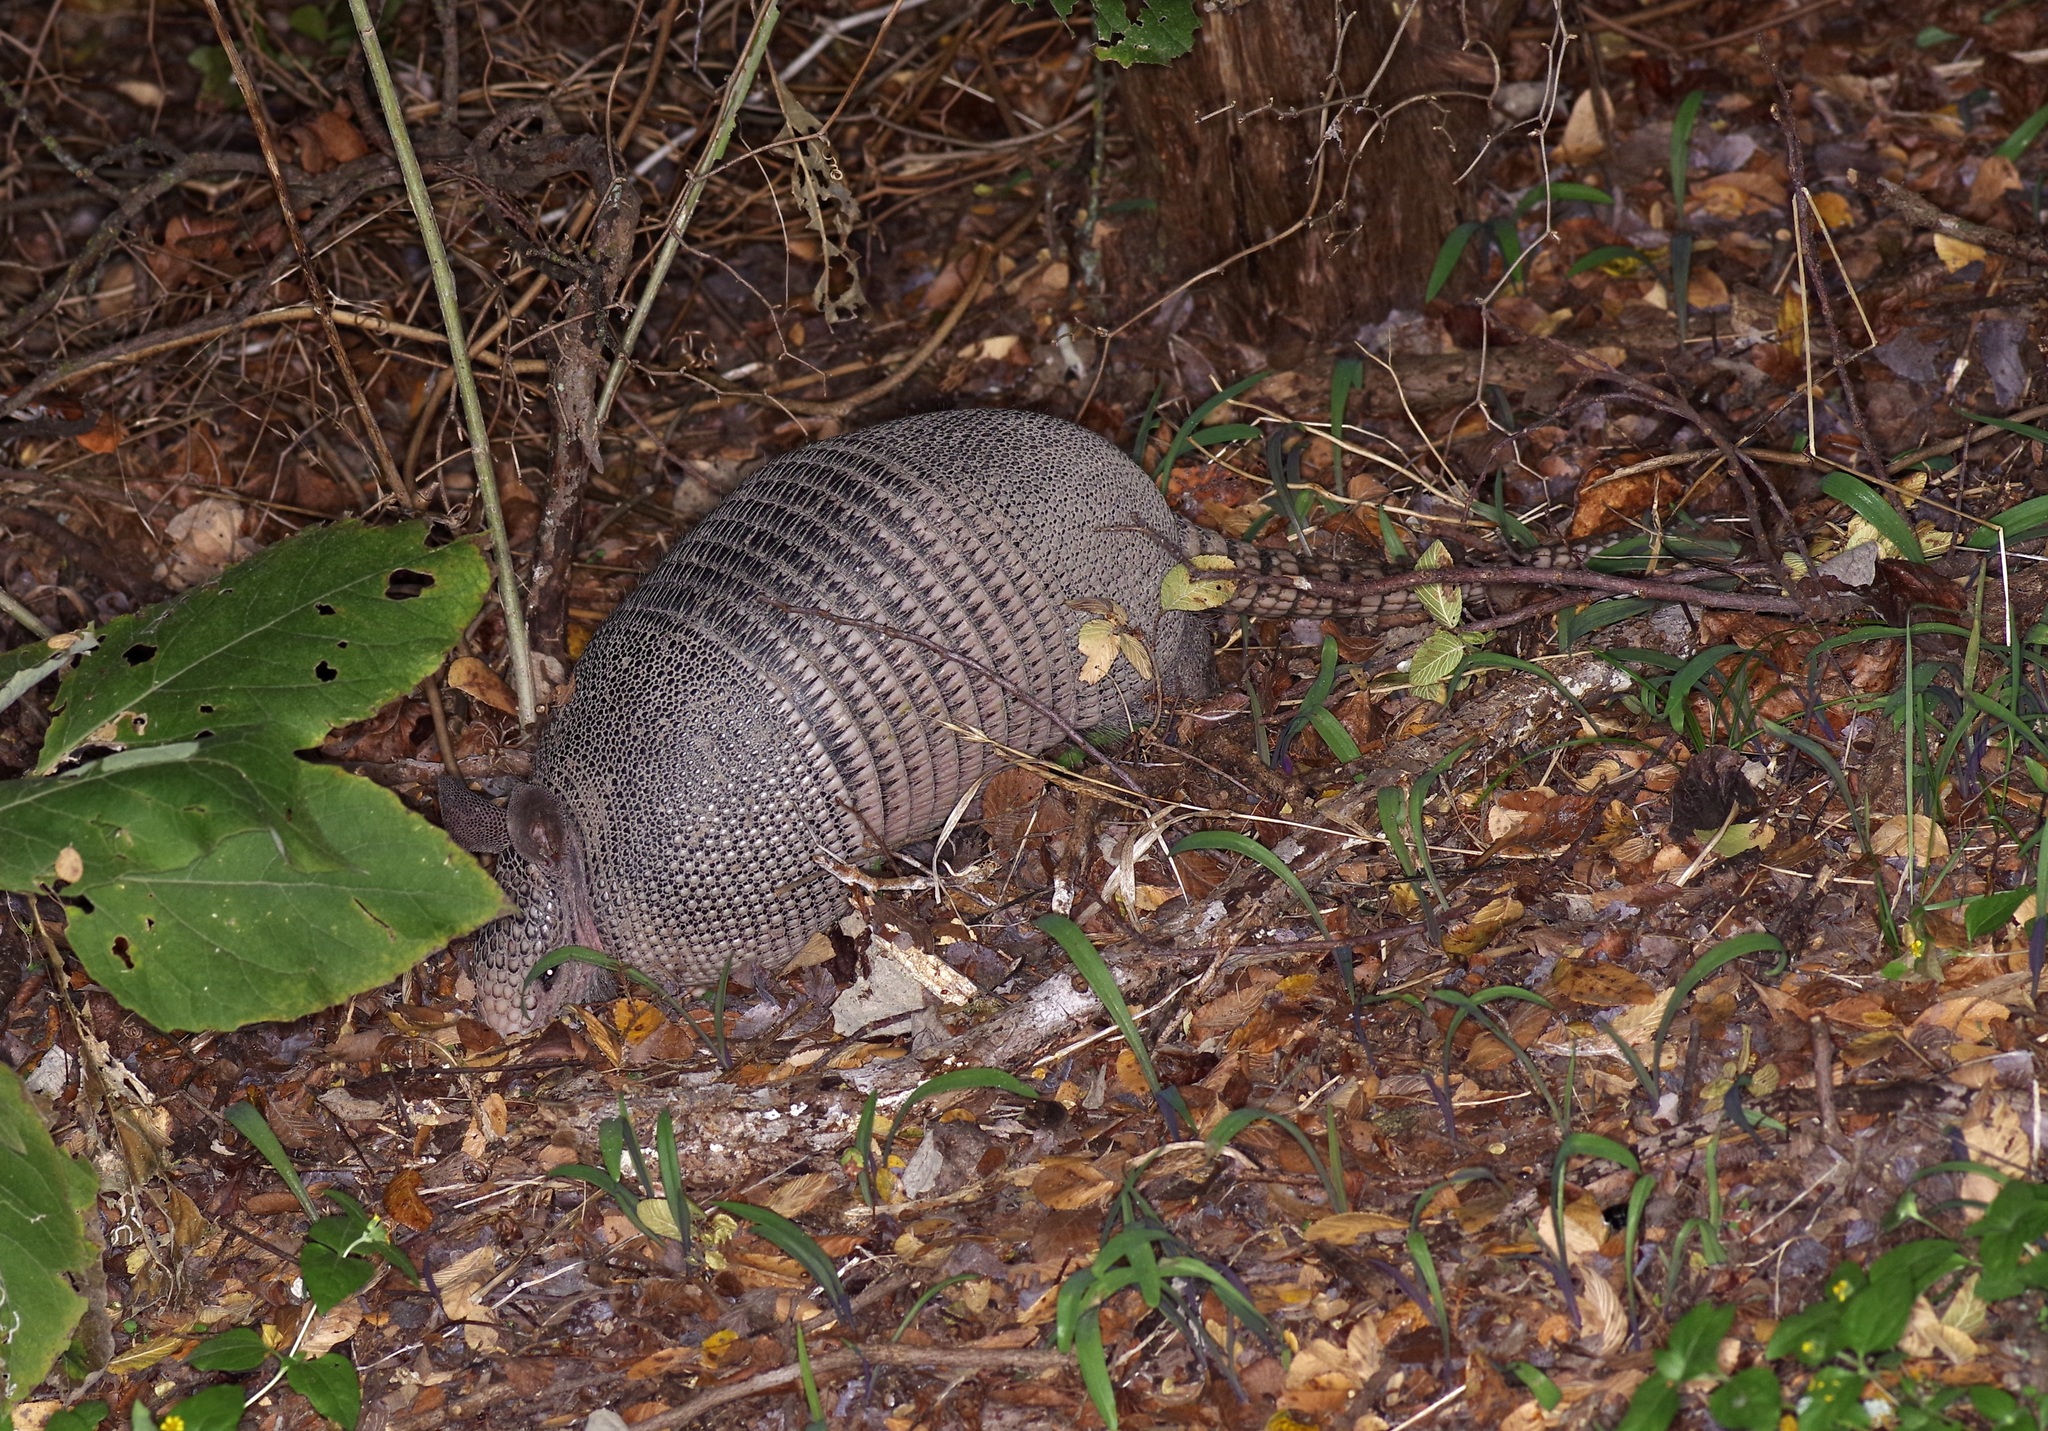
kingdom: Animalia
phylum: Chordata
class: Mammalia
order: Cingulata
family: Dasypodidae
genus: Dasypus
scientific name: Dasypus novemcinctus
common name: Nine-banded armadillo
